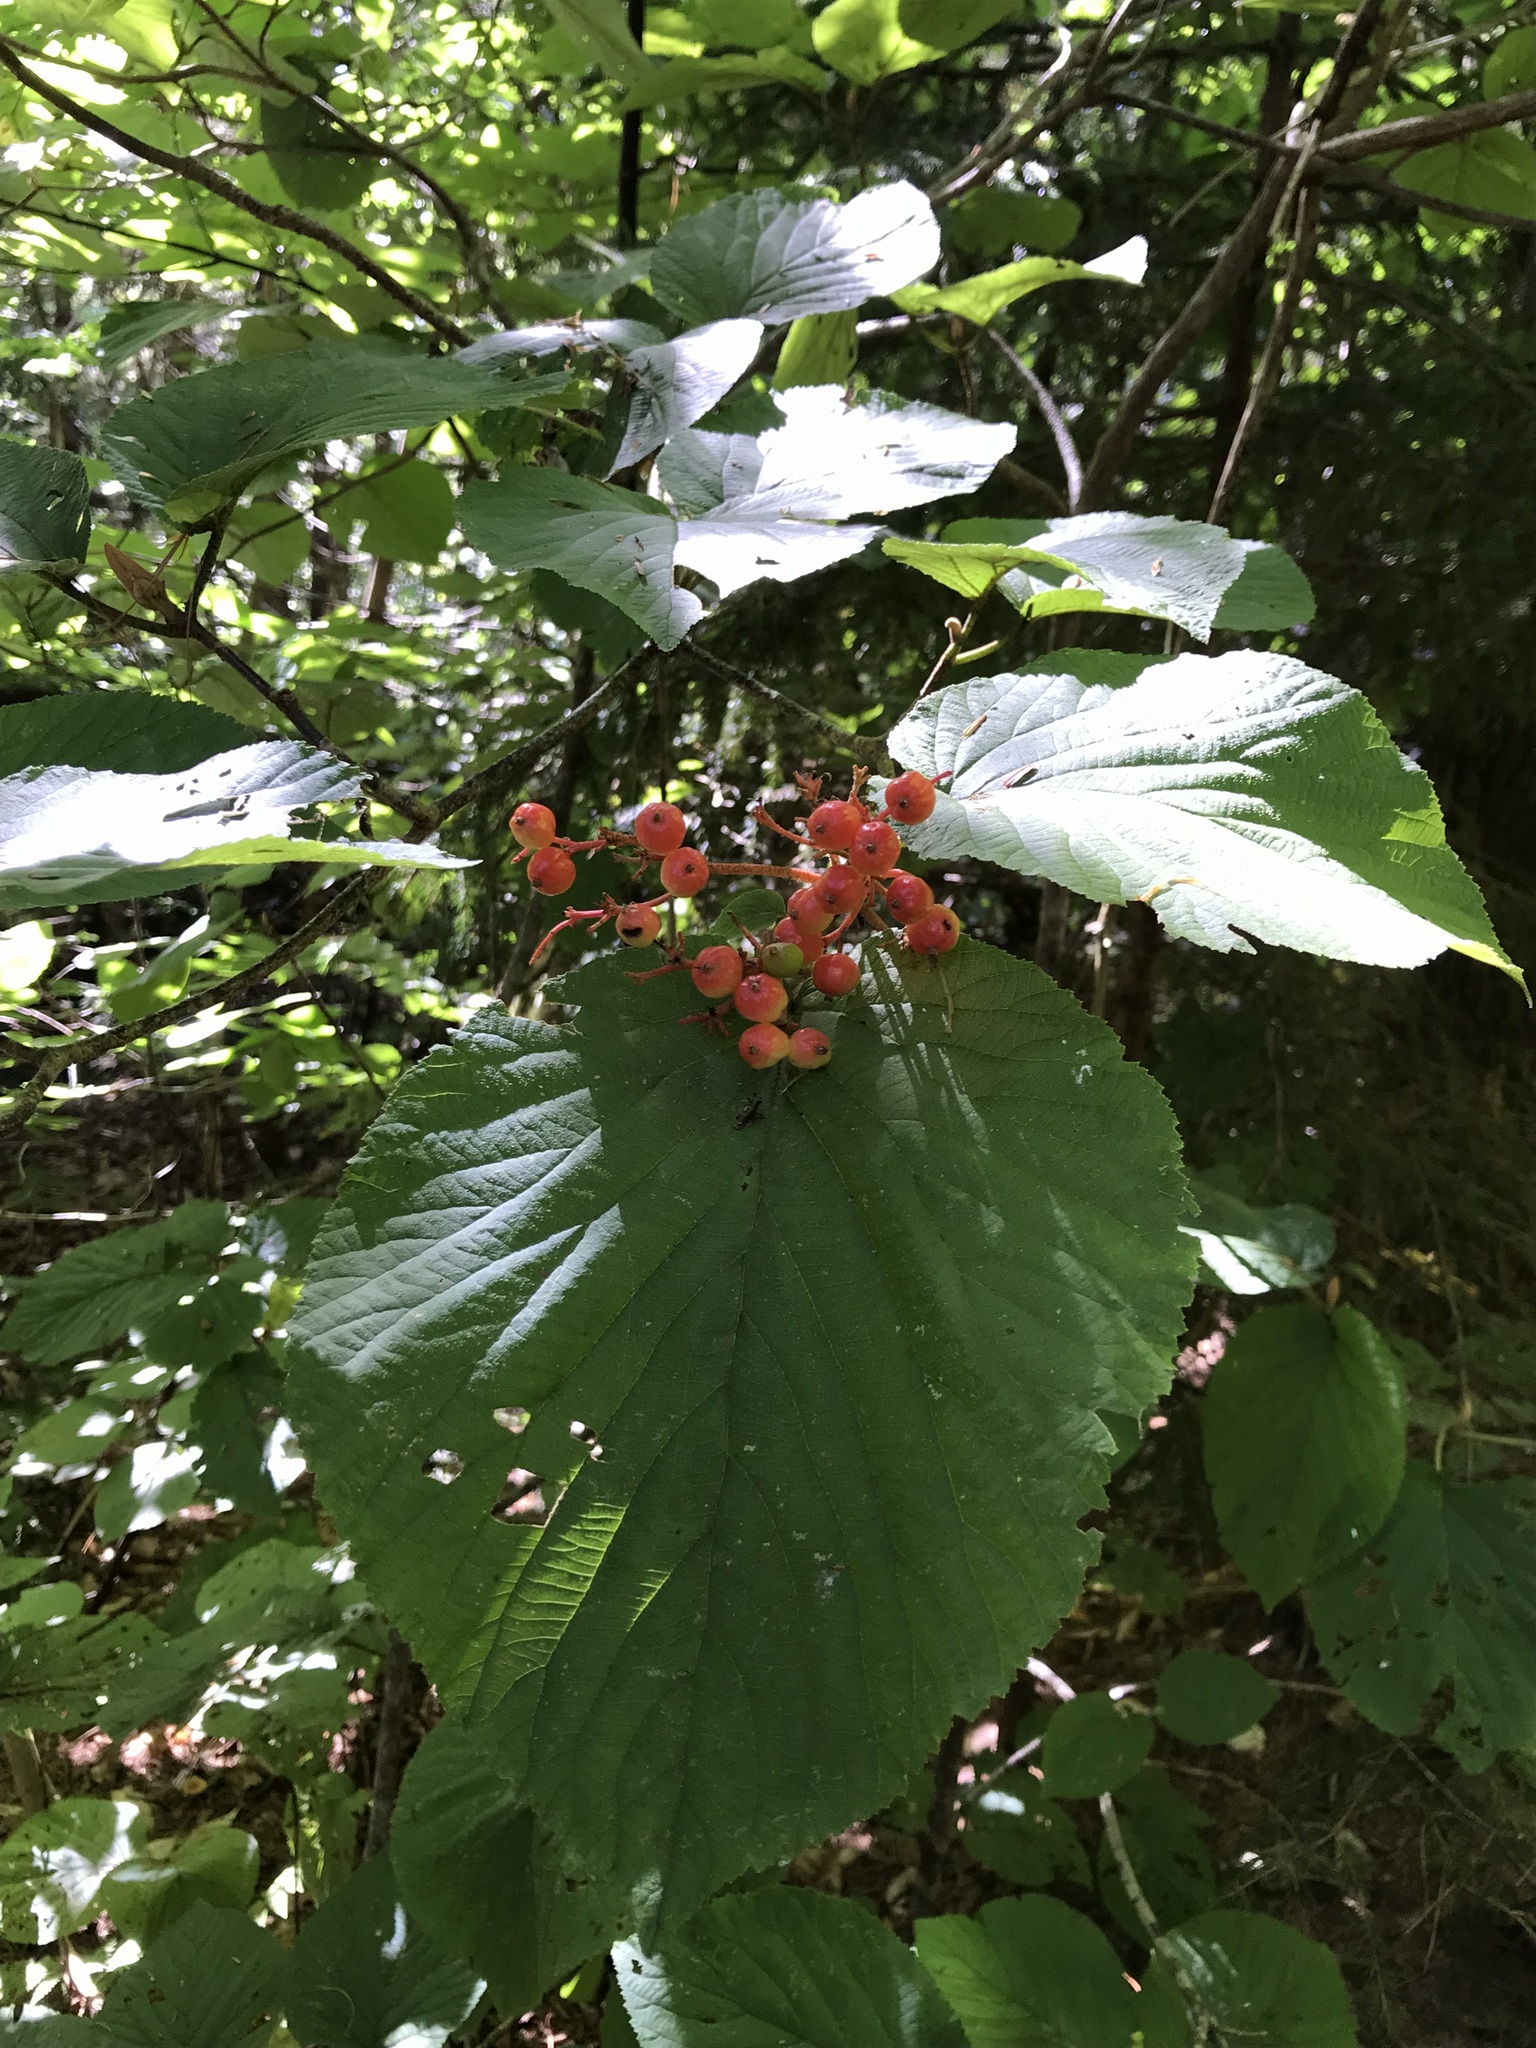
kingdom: Plantae
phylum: Tracheophyta
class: Magnoliopsida
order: Dipsacales
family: Viburnaceae
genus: Viburnum
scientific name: Viburnum lantanoides
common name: Hobblebush
